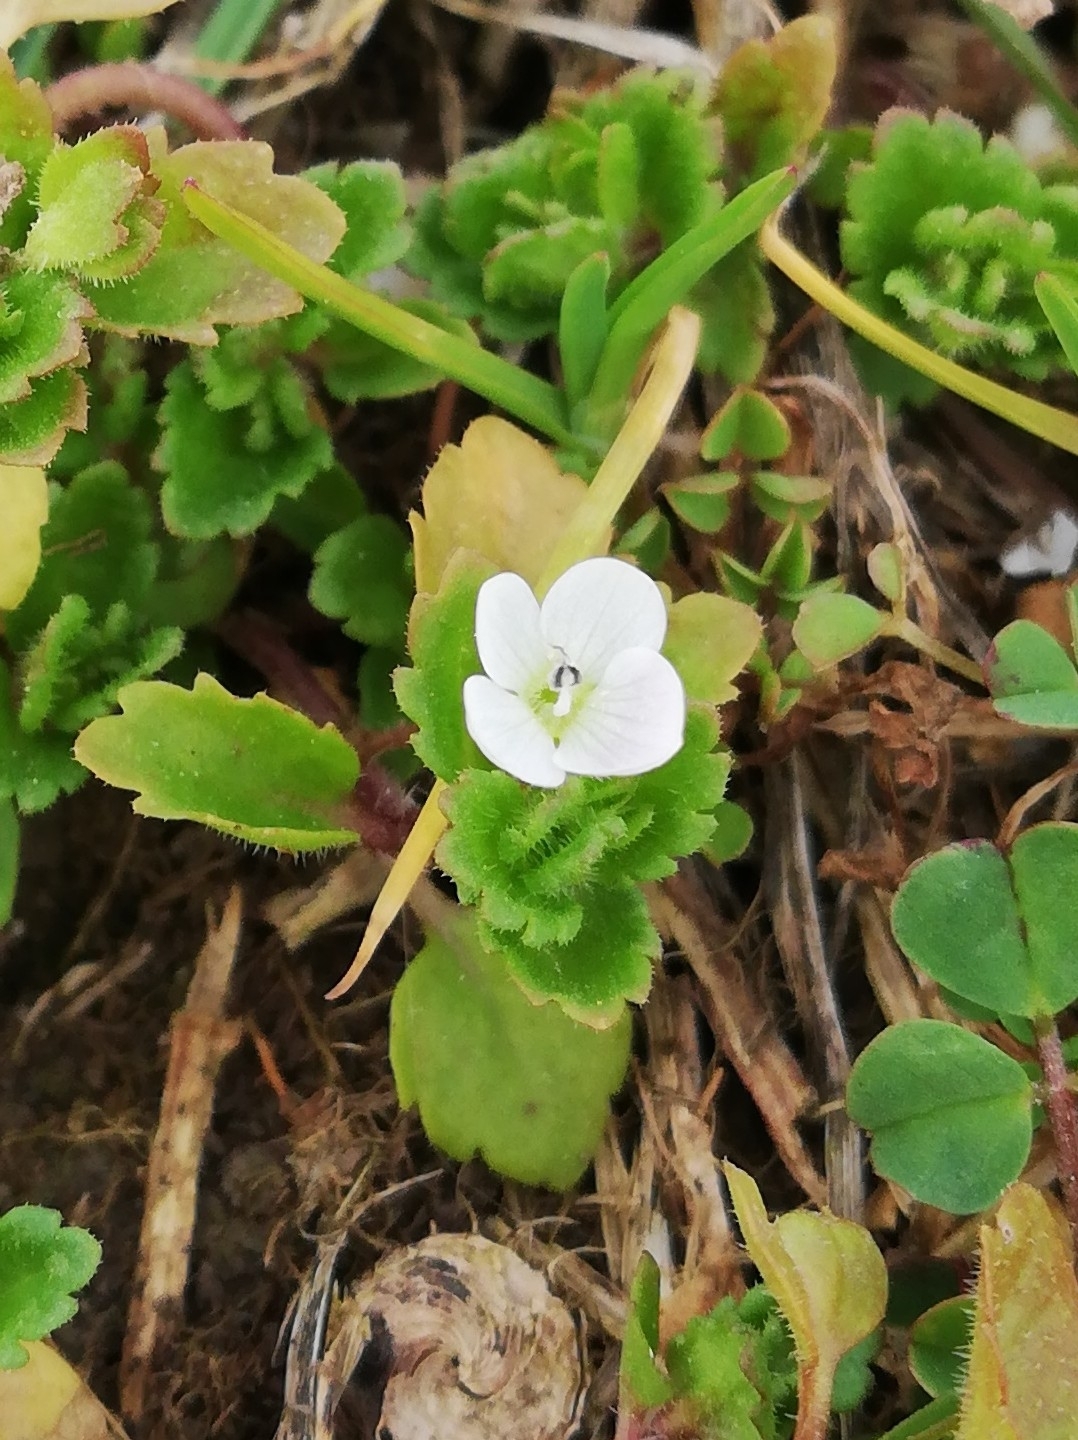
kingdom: Plantae
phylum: Tracheophyta
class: Magnoliopsida
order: Lamiales
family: Plantaginaceae
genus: Veronica
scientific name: Veronica persica
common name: Common field-speedwell
